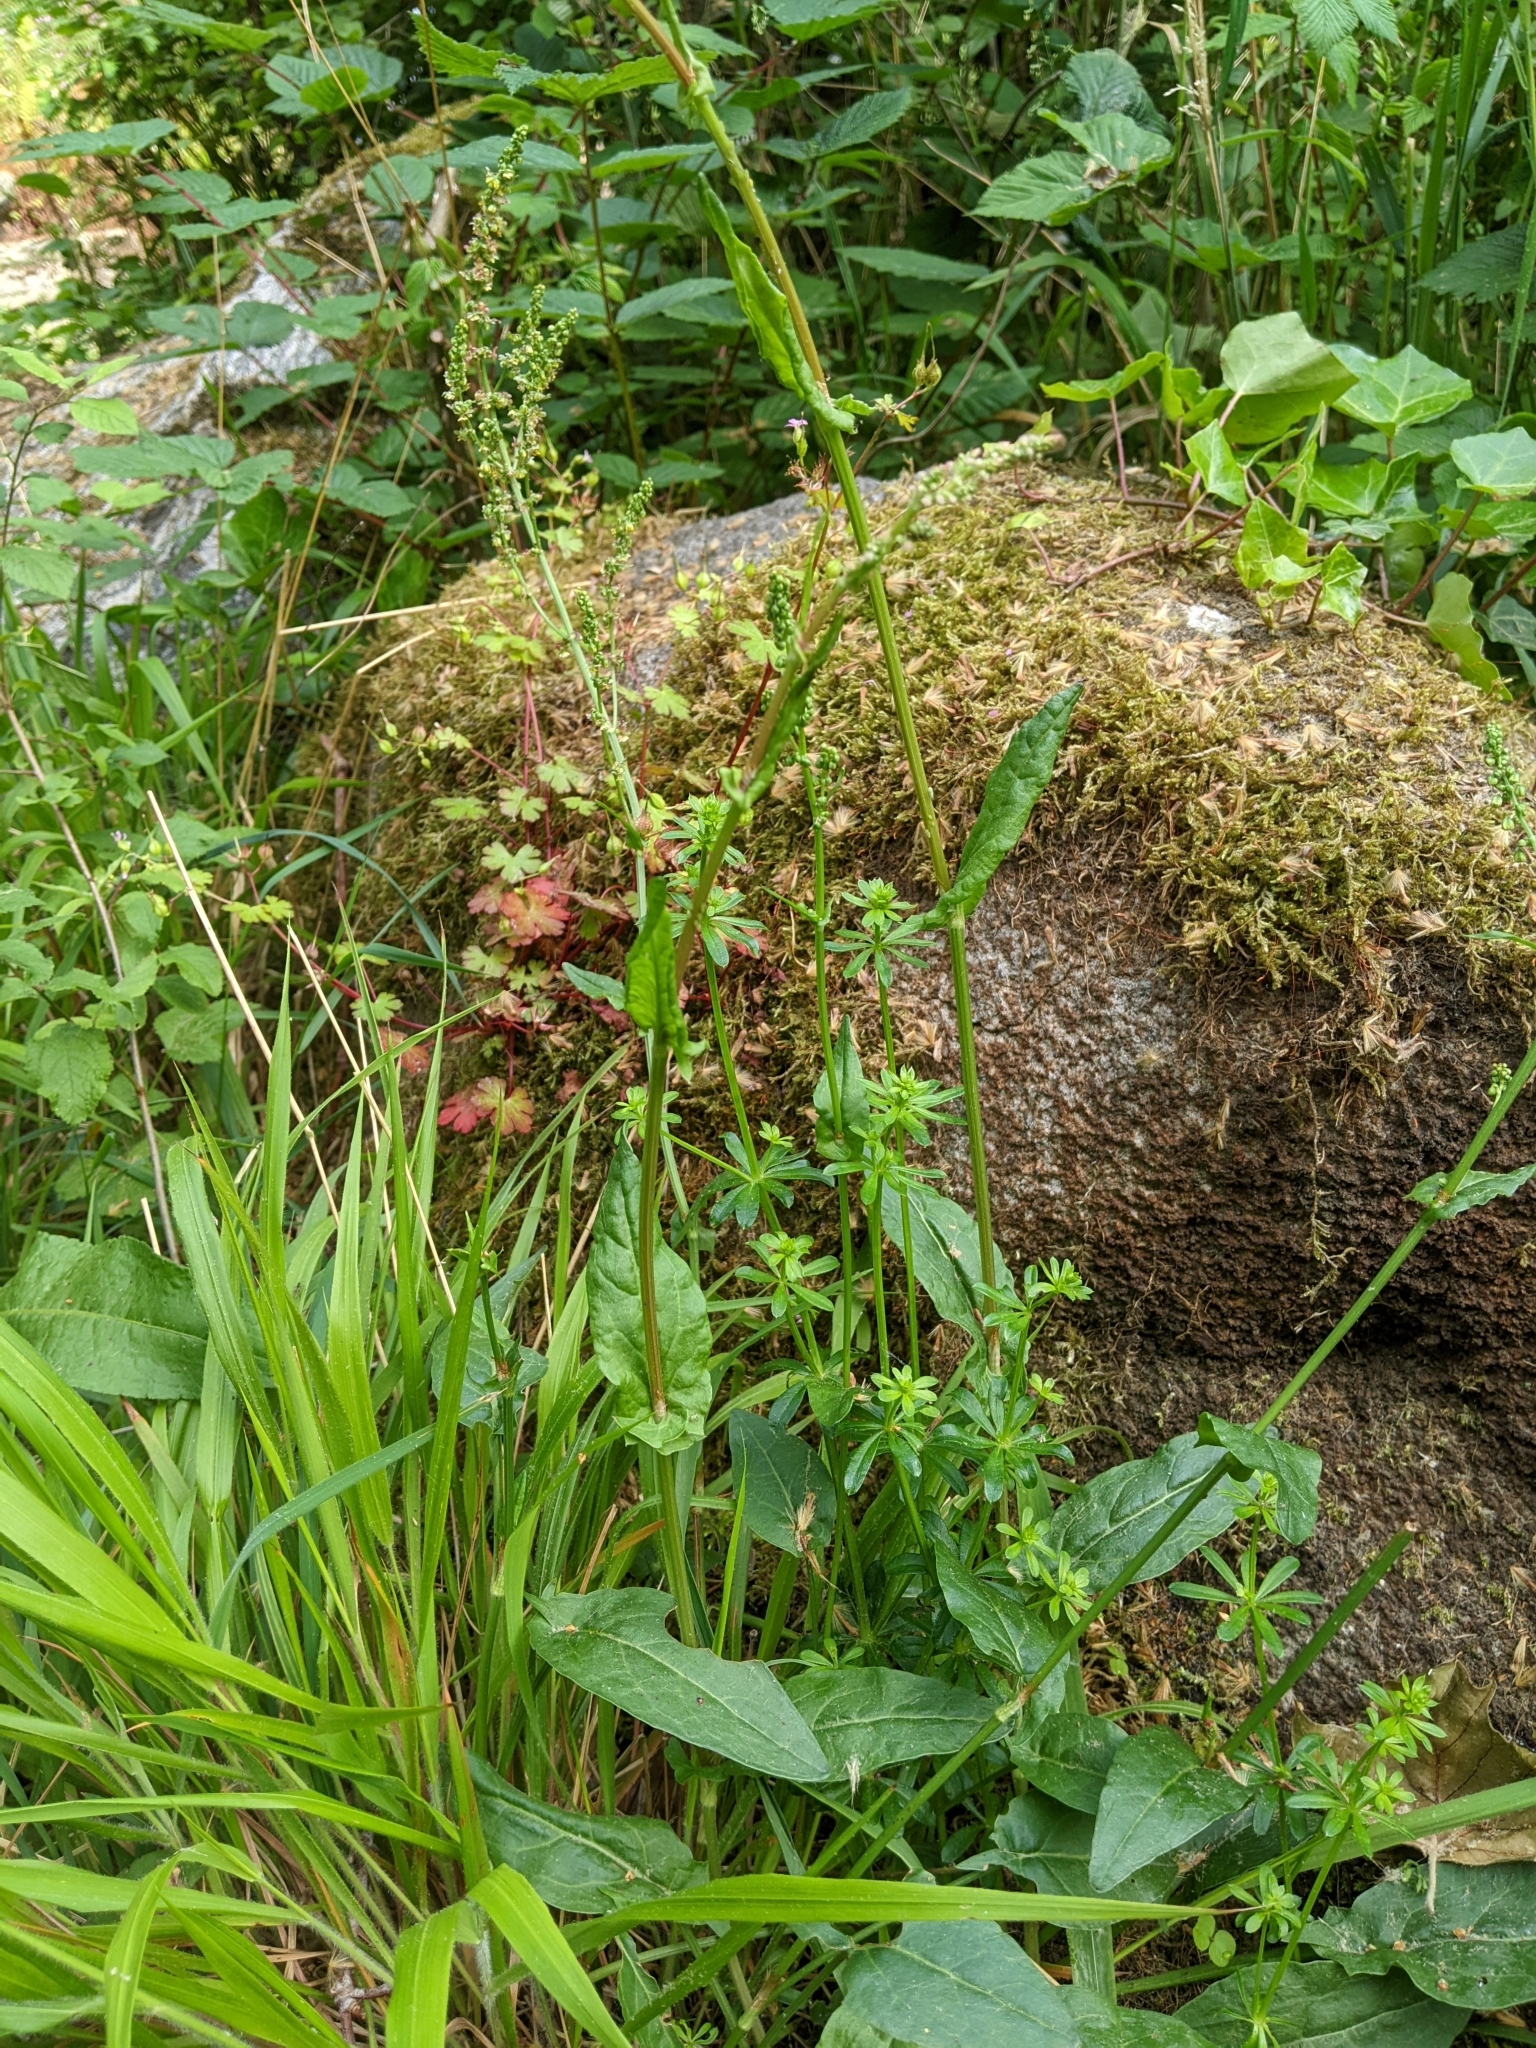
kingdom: Plantae
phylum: Tracheophyta
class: Magnoliopsida
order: Caryophyllales
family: Polygonaceae
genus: Rumex
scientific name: Rumex acetosa
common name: Garden sorrel
